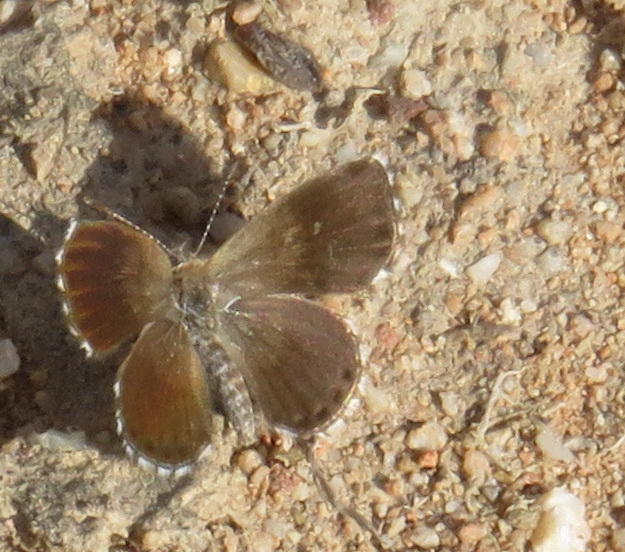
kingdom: Animalia
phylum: Arthropoda
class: Insecta
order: Lepidoptera
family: Lycaenidae
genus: Brephidium
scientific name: Brephidium metophis
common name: Tinktinkie blue
